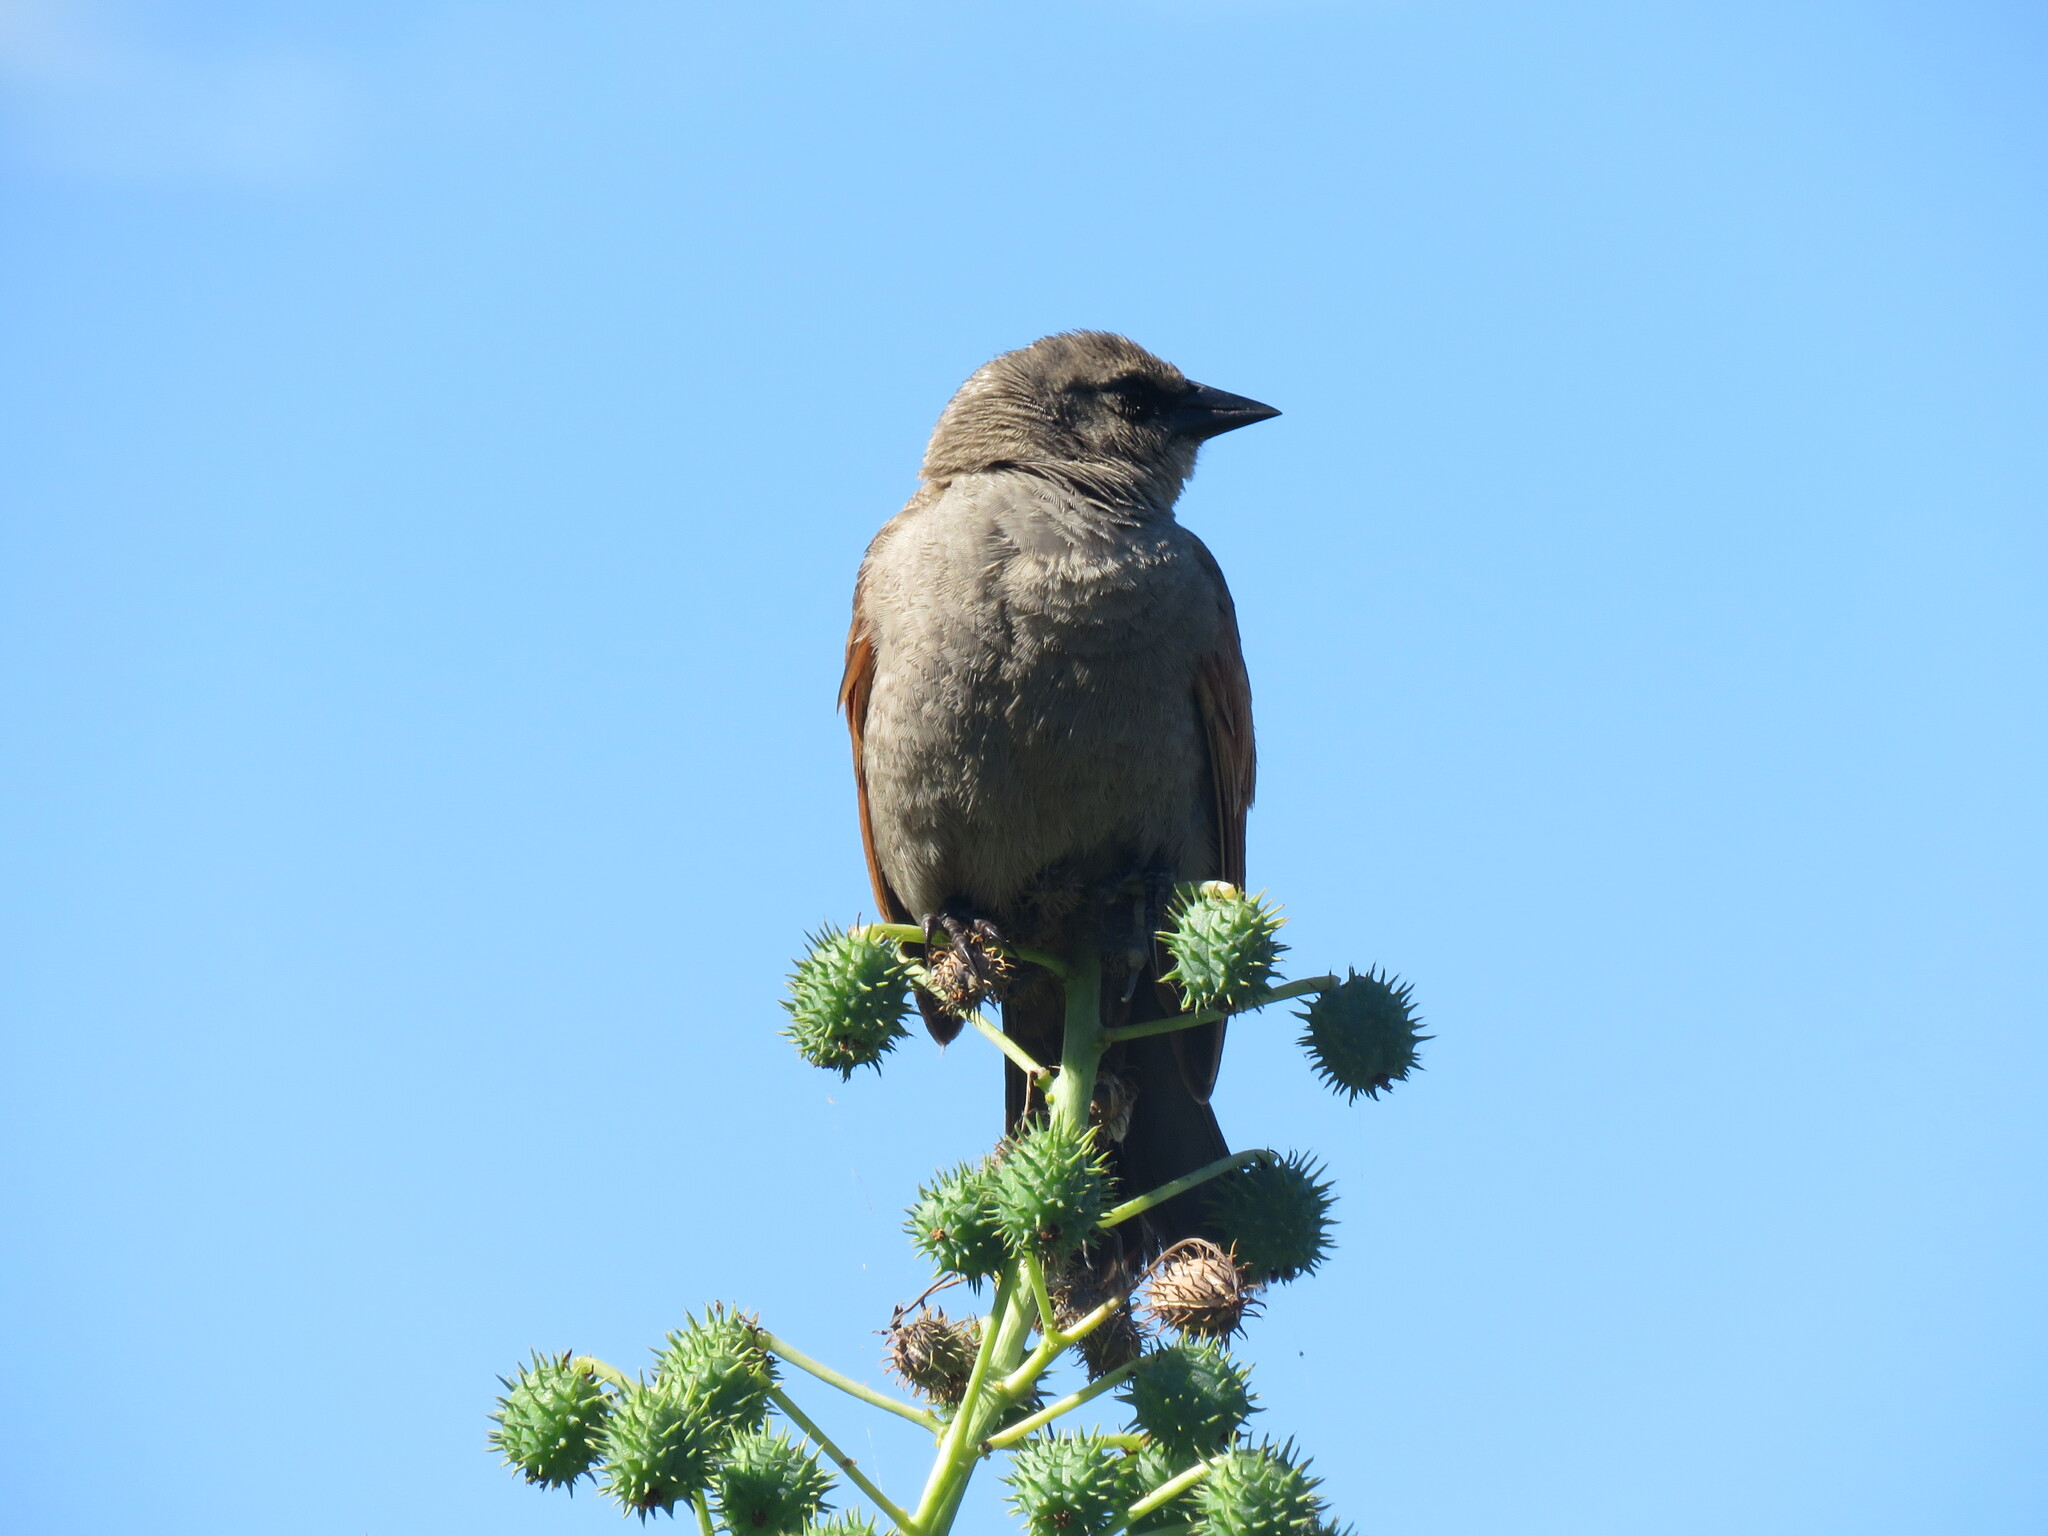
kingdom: Animalia
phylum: Chordata
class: Aves
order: Passeriformes
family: Icteridae
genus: Agelaioides
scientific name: Agelaioides badius
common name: Baywing
